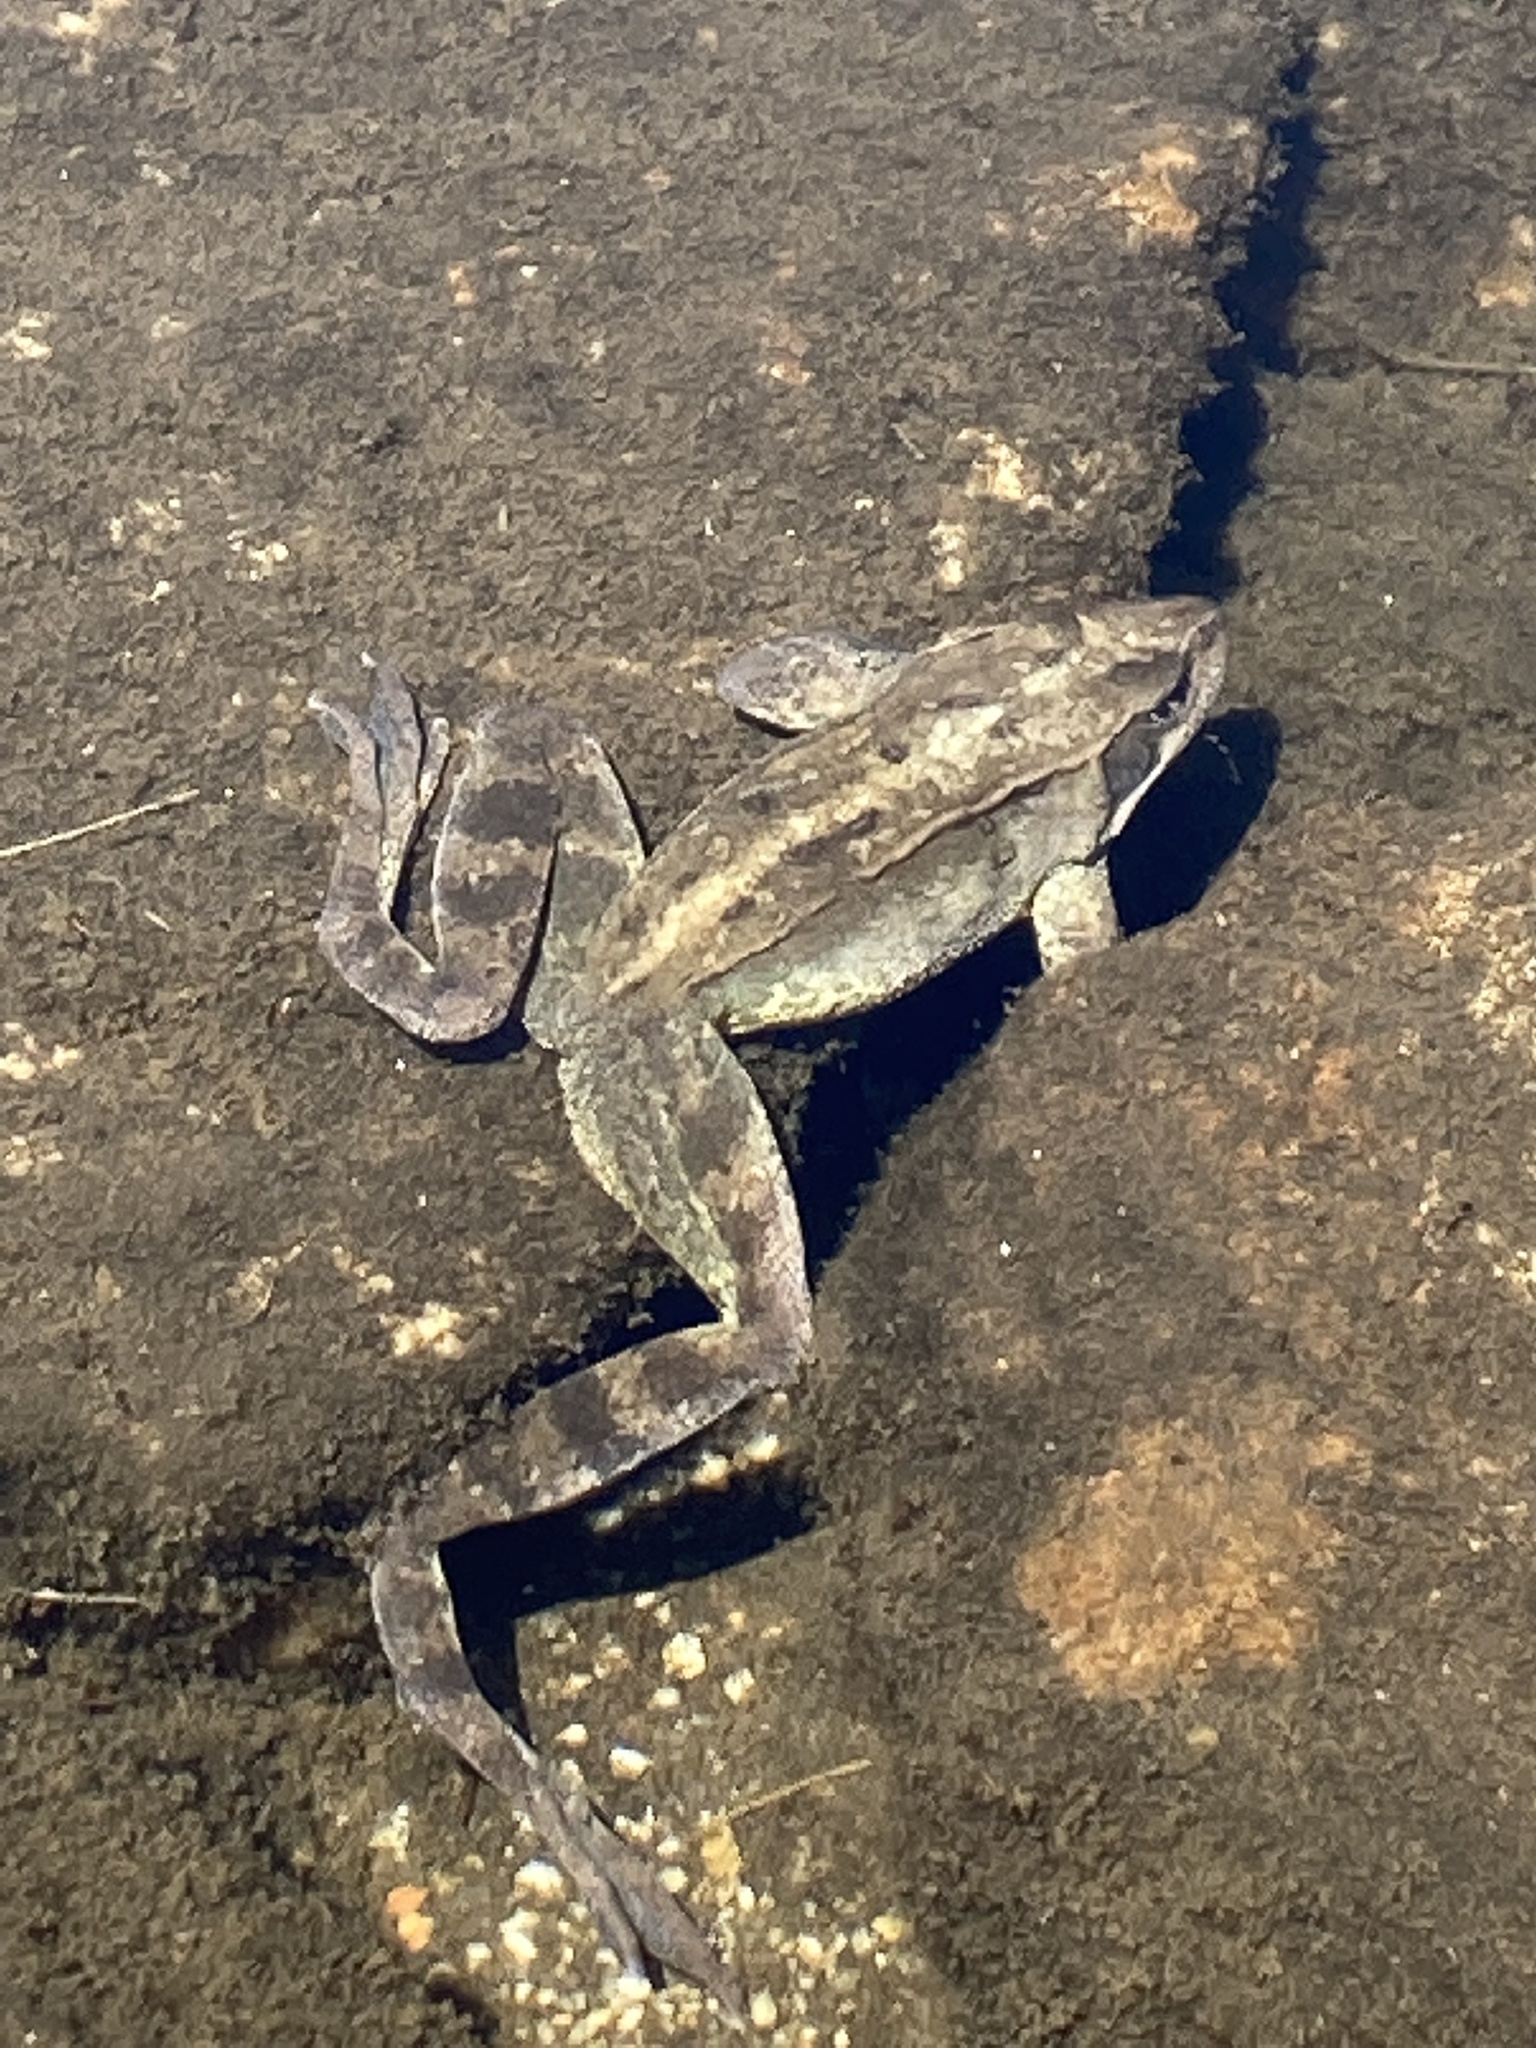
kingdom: Animalia
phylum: Chordata
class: Amphibia
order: Anura
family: Ranidae
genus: Rana
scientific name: Rana temporaria
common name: Common frog
